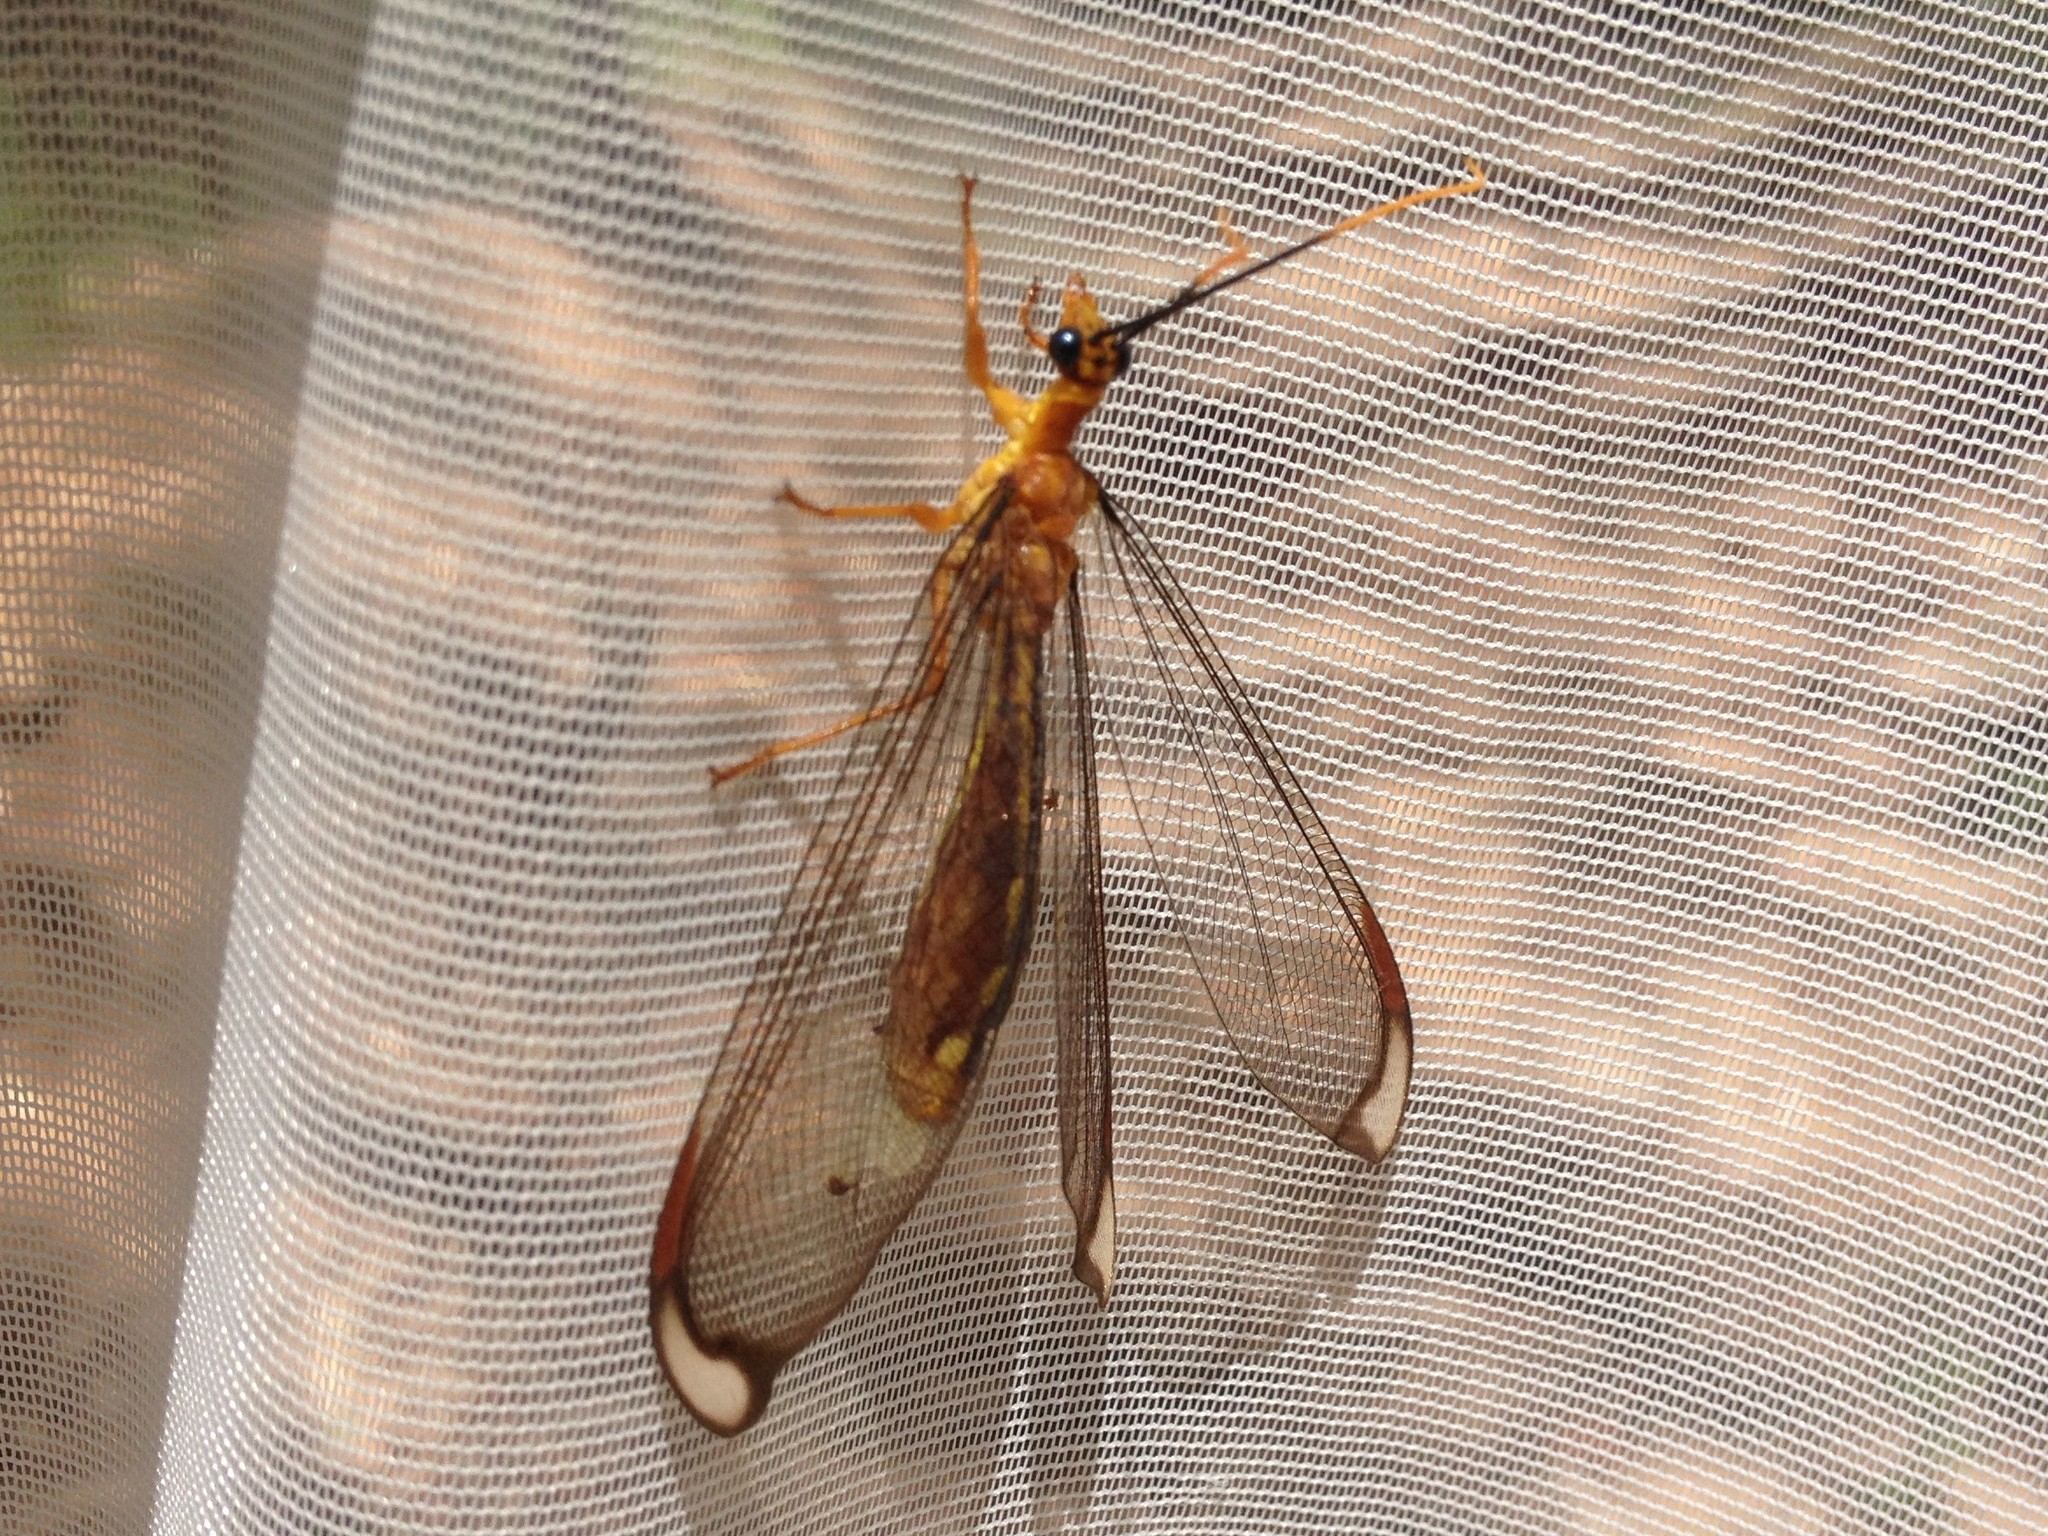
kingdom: Animalia
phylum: Arthropoda
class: Insecta
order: Neuroptera
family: Nymphidae
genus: Nymphes
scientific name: Nymphes myrmeleonoides
